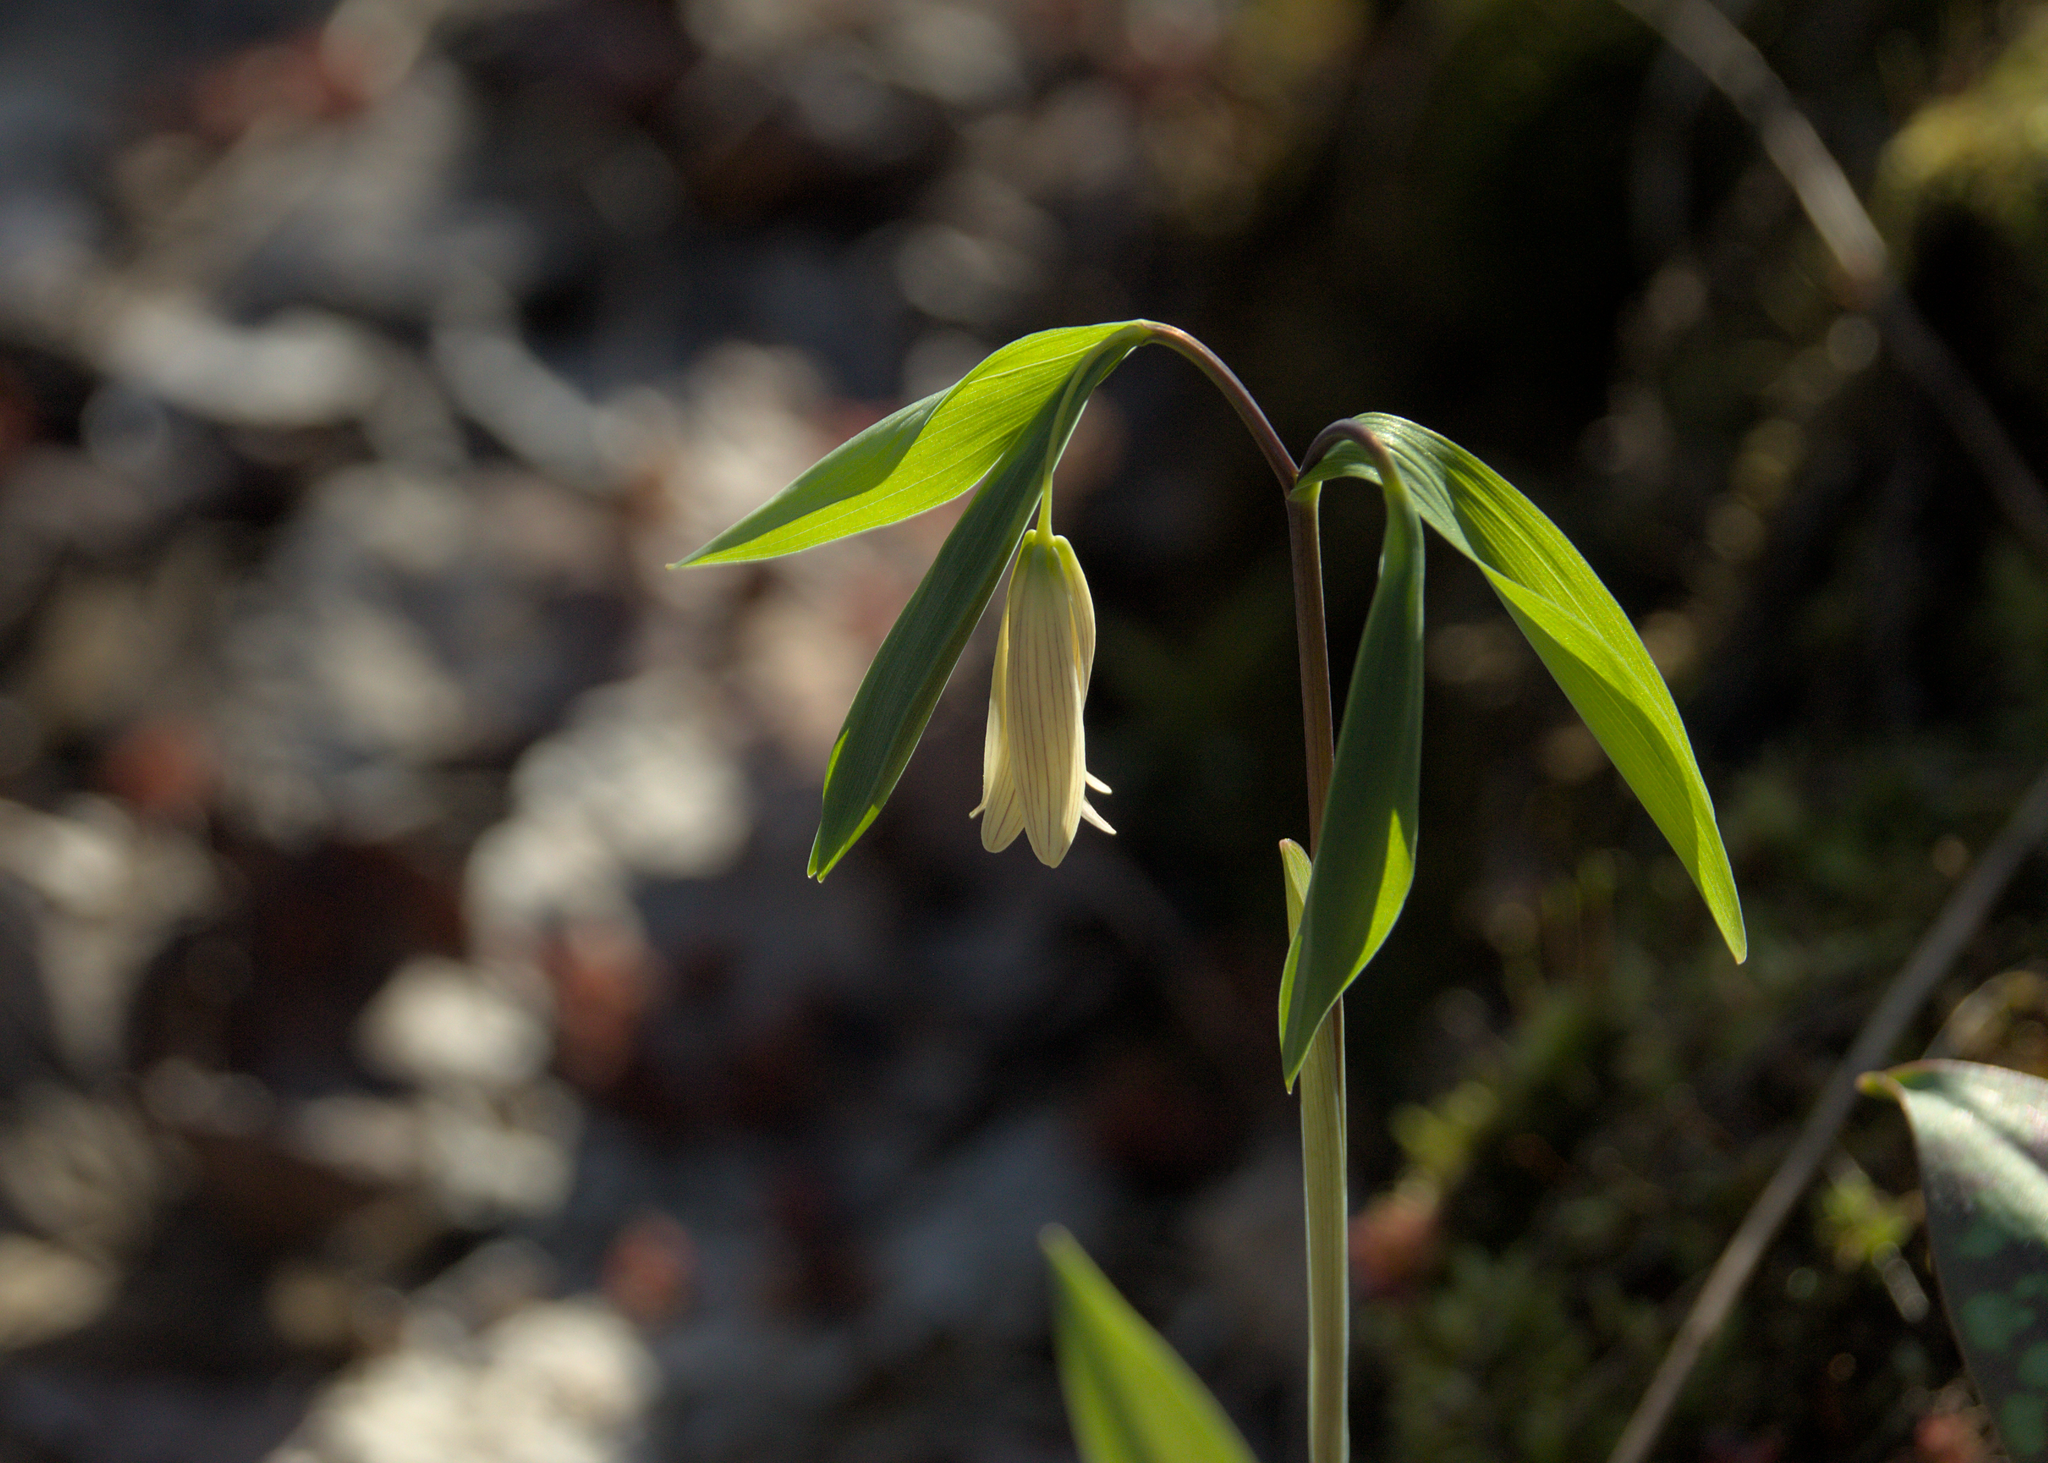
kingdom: Plantae
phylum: Tracheophyta
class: Liliopsida
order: Liliales
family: Colchicaceae
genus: Uvularia
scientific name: Uvularia sessilifolia
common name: Straw-lily
